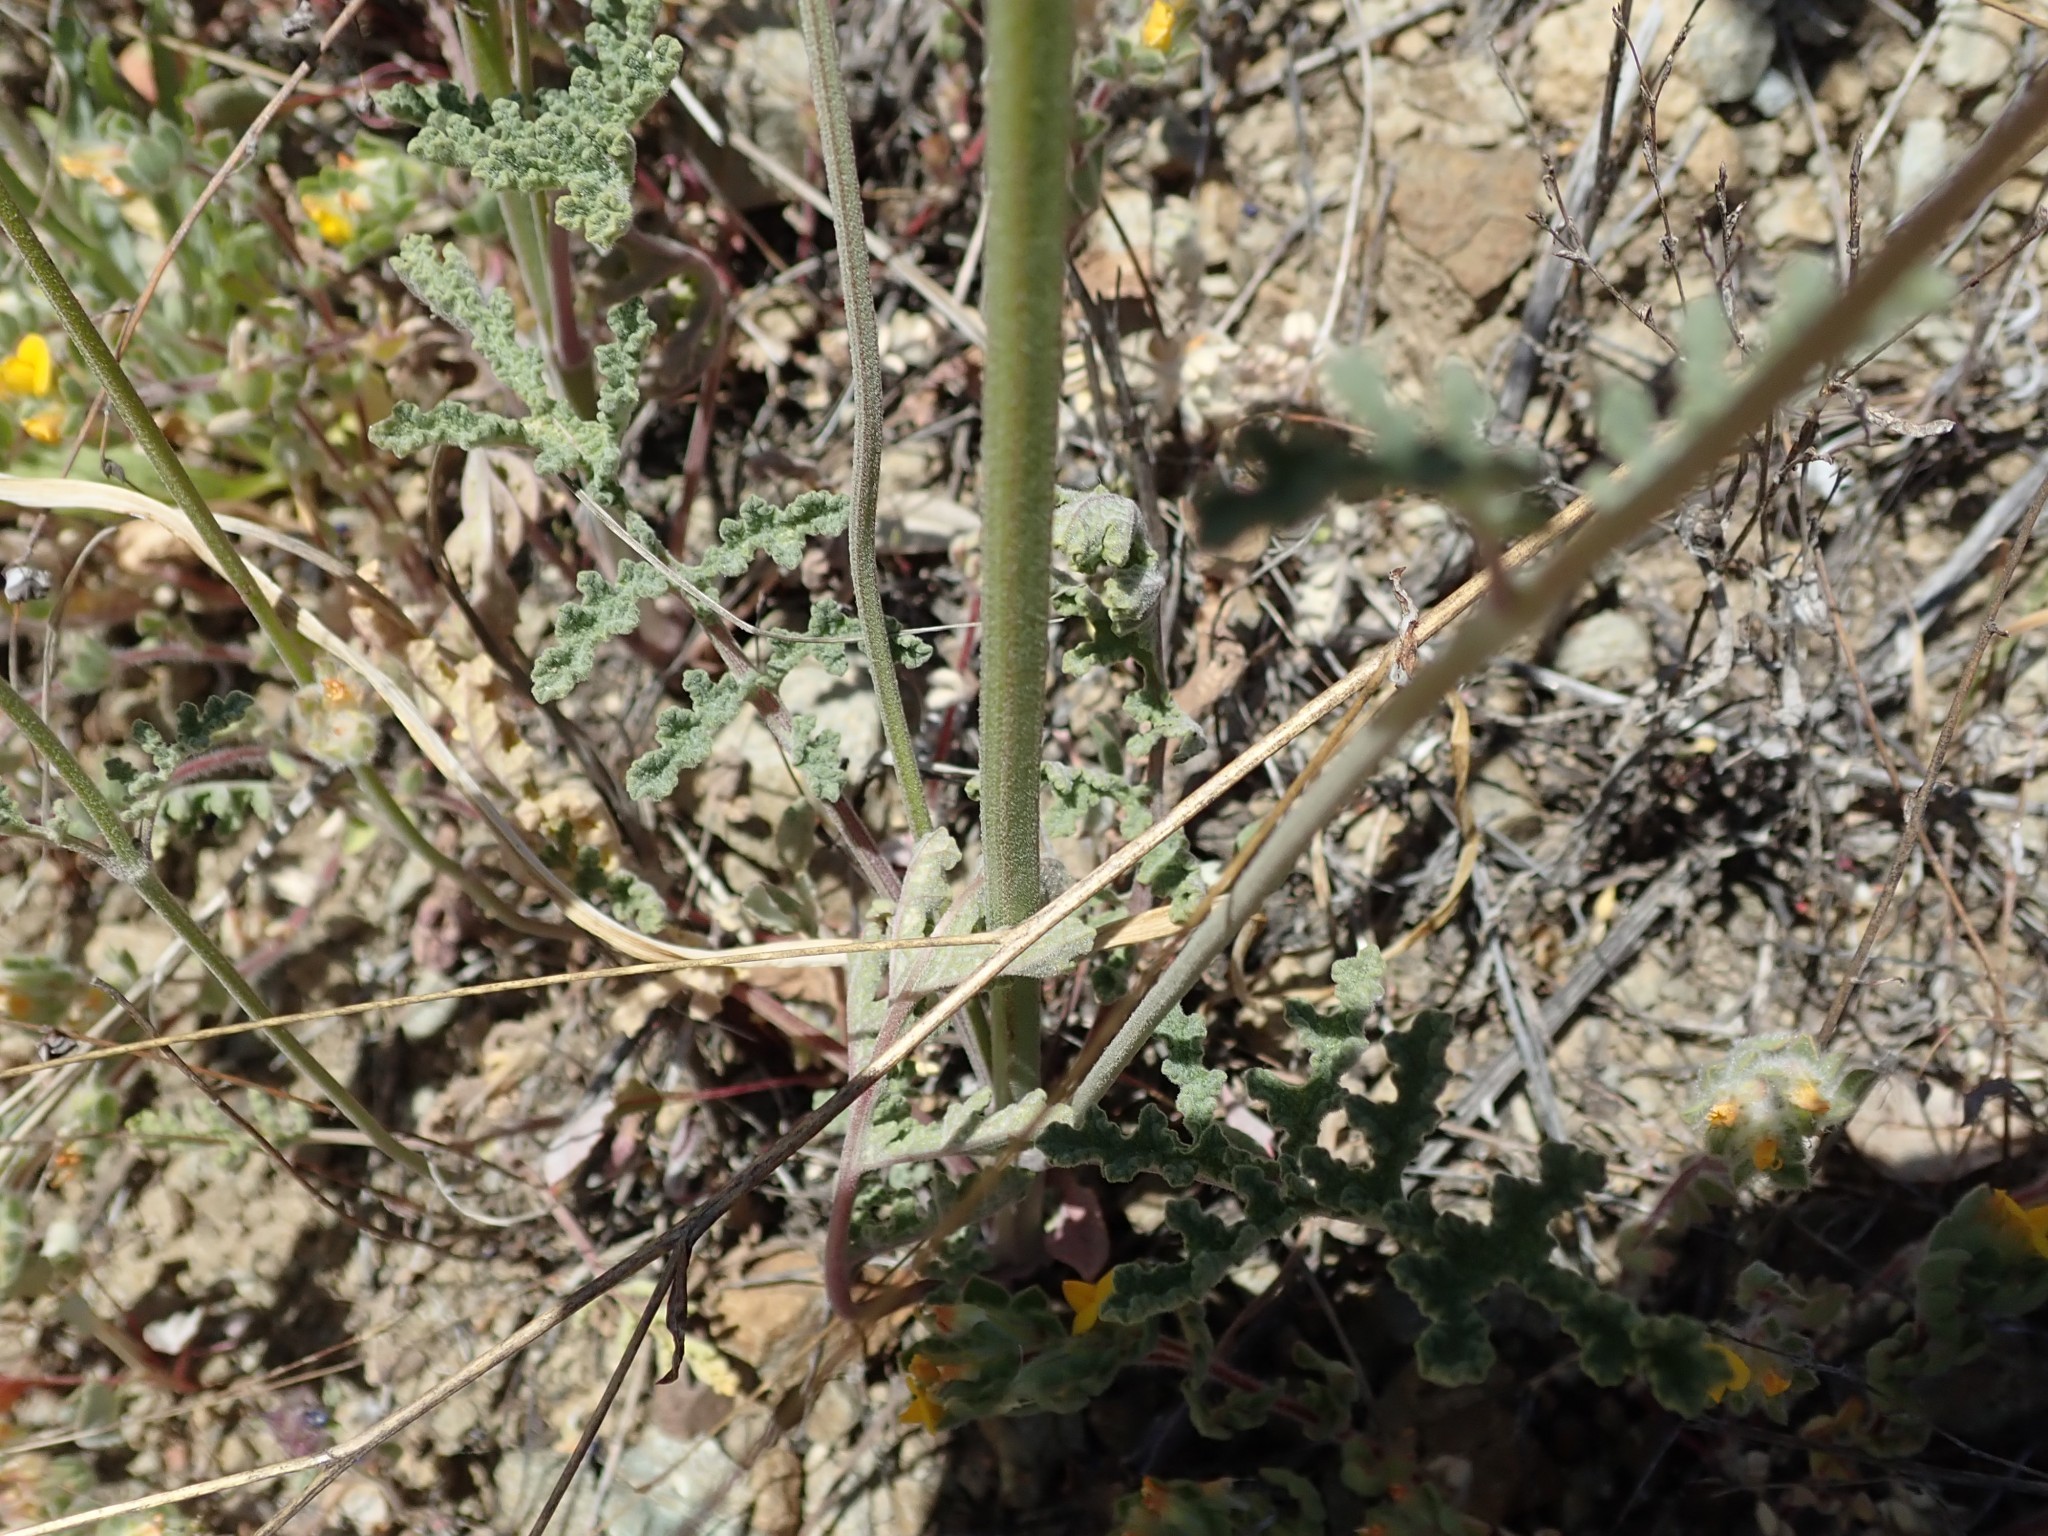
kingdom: Plantae
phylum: Tracheophyta
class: Magnoliopsida
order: Lamiales
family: Lamiaceae
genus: Salvia
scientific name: Salvia columbariae
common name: Chia
